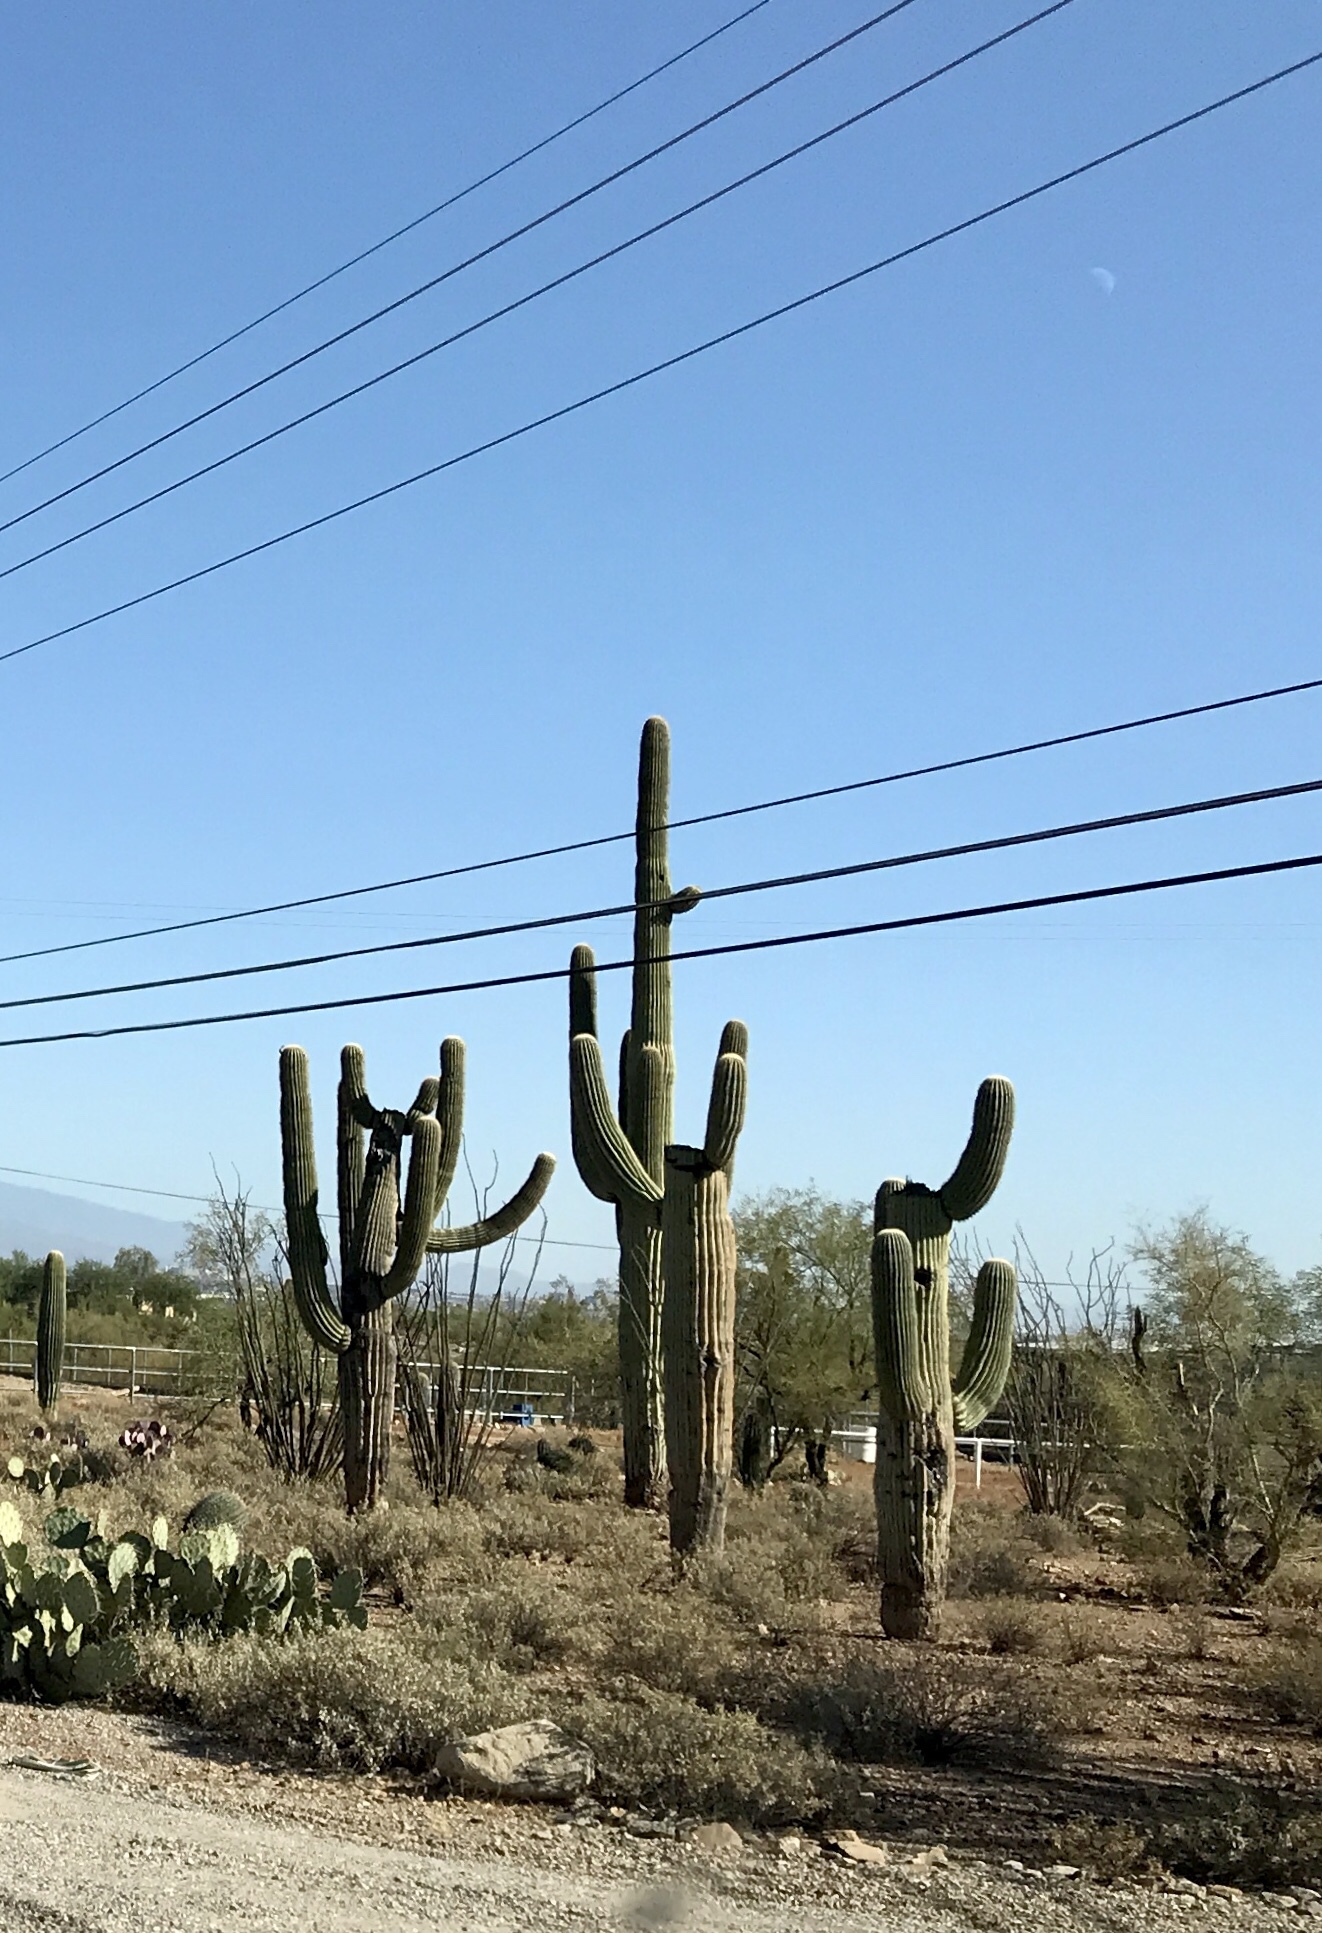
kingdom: Plantae
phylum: Tracheophyta
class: Magnoliopsida
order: Caryophyllales
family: Cactaceae
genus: Carnegiea
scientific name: Carnegiea gigantea
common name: Saguaro
